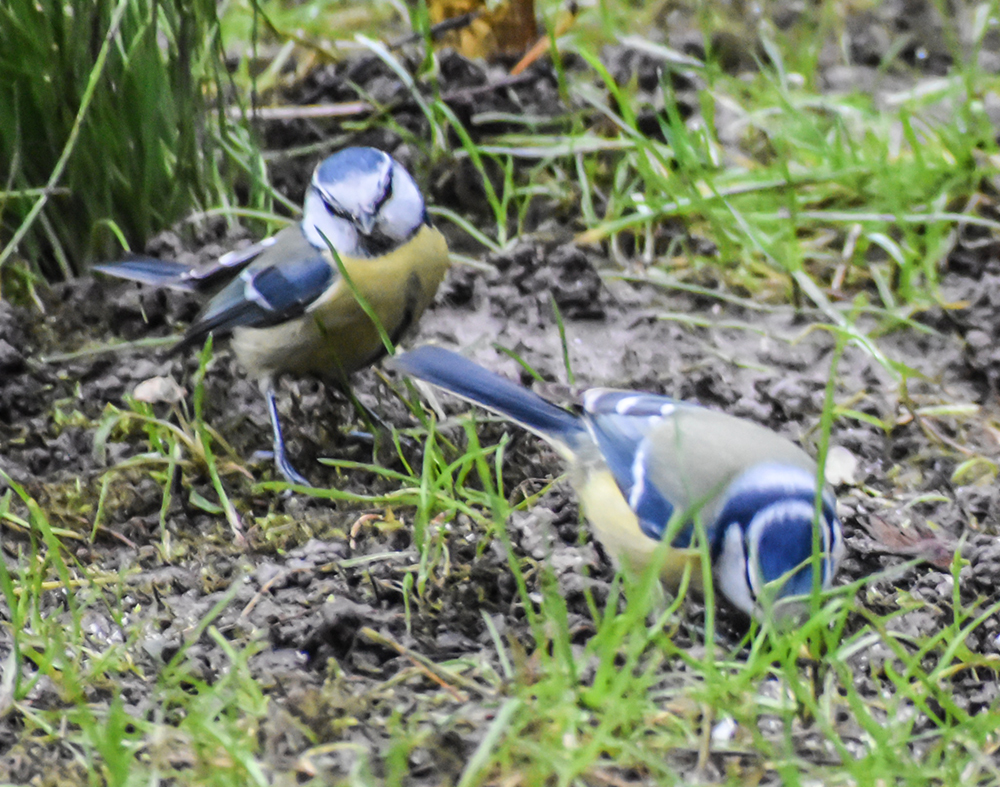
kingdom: Animalia
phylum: Chordata
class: Aves
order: Passeriformes
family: Paridae
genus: Cyanistes
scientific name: Cyanistes caeruleus
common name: Eurasian blue tit
